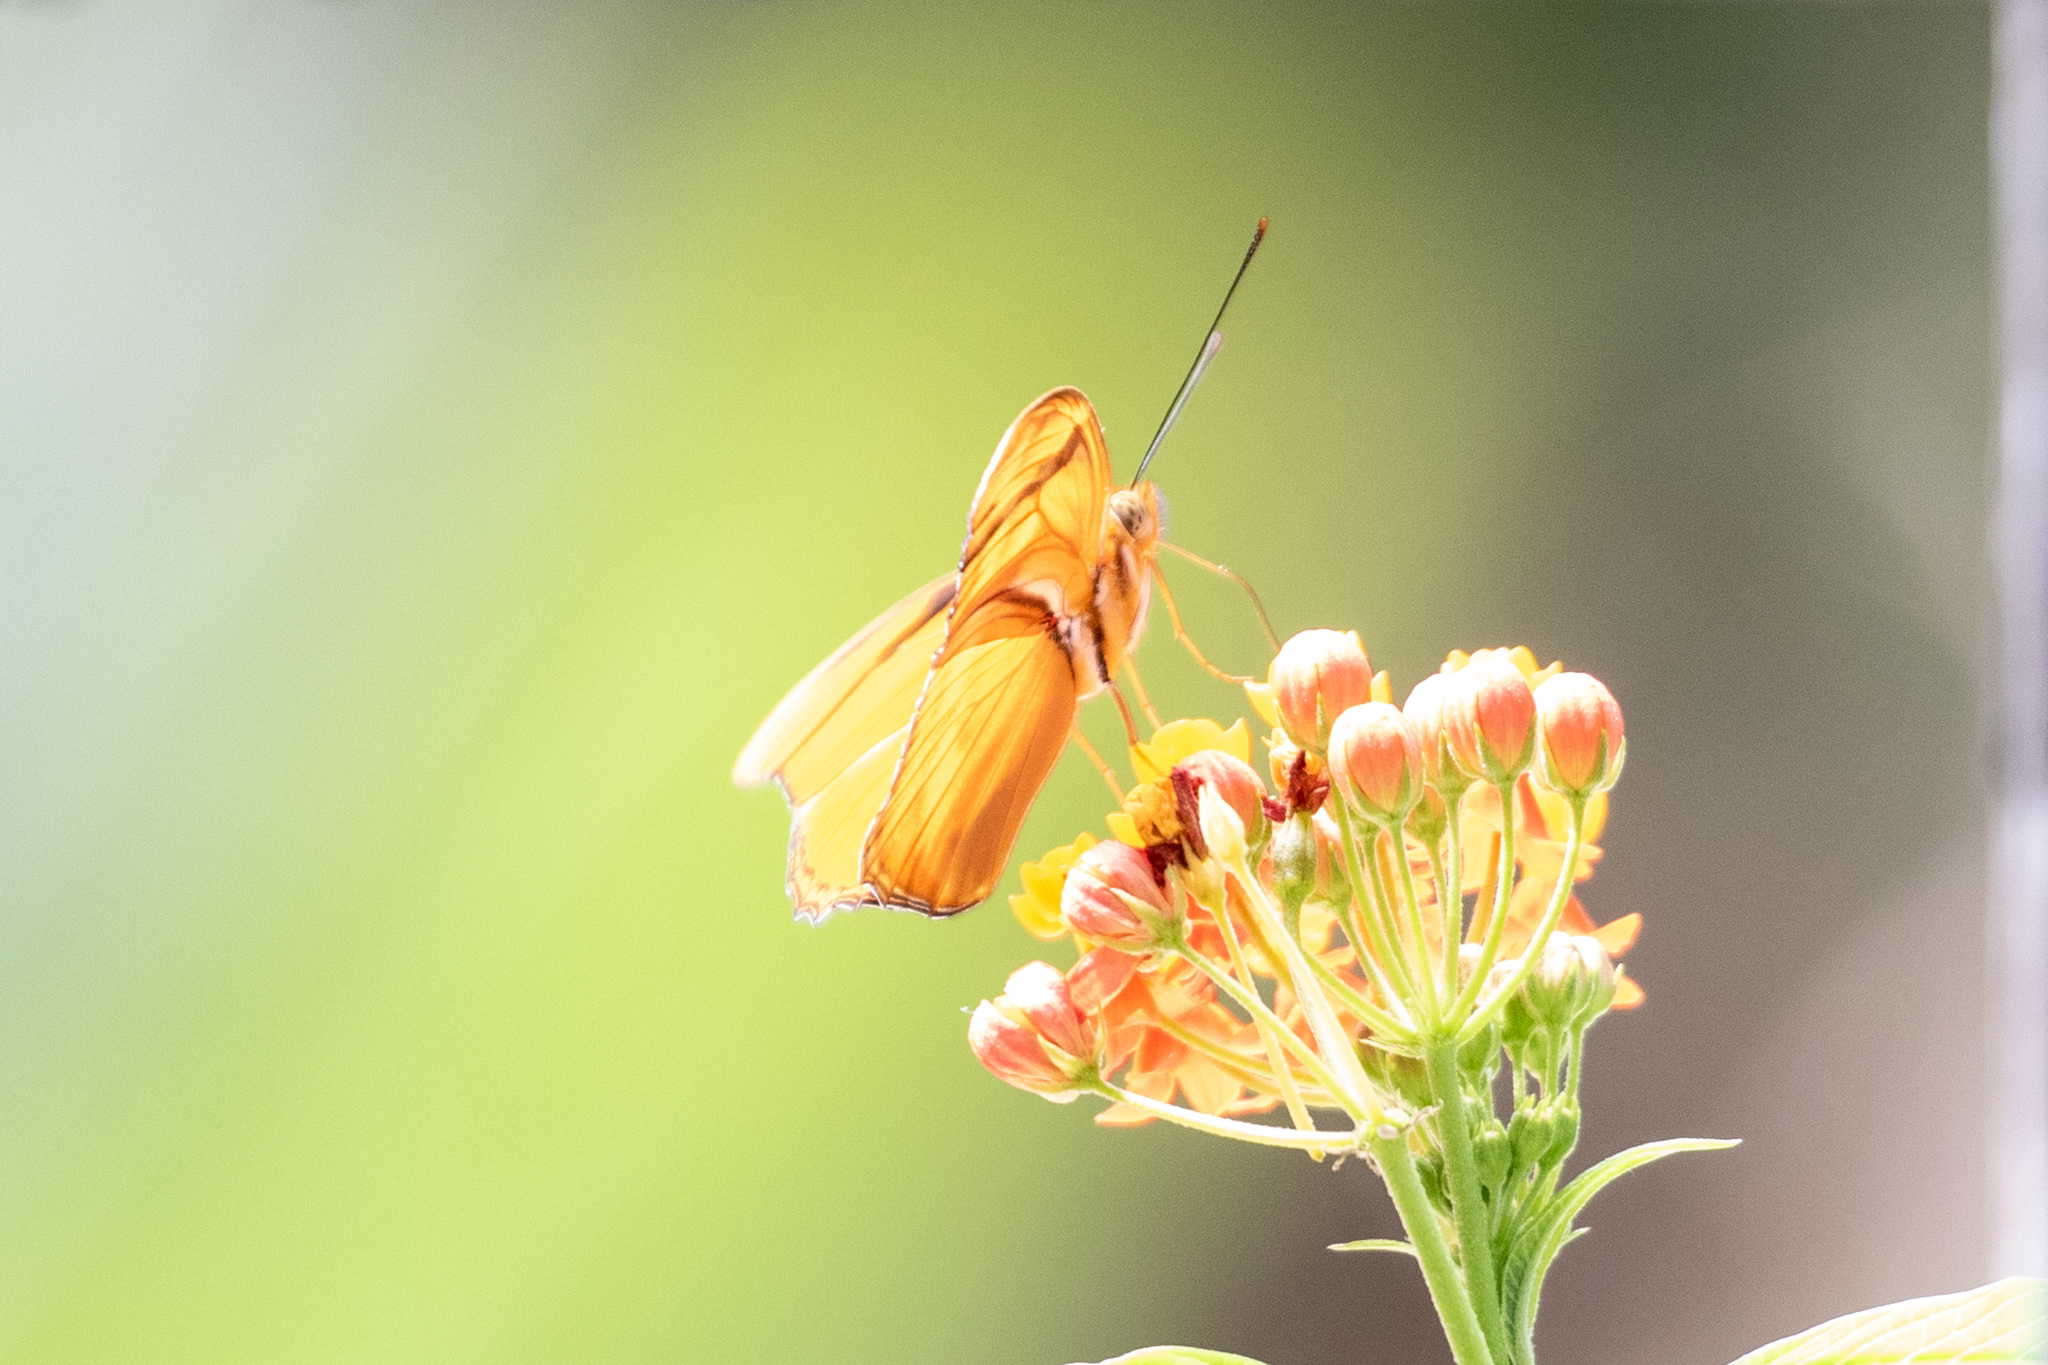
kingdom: Animalia
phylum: Arthropoda
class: Insecta
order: Lepidoptera
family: Nymphalidae
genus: Dryas
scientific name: Dryas iulia
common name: Flambeau
